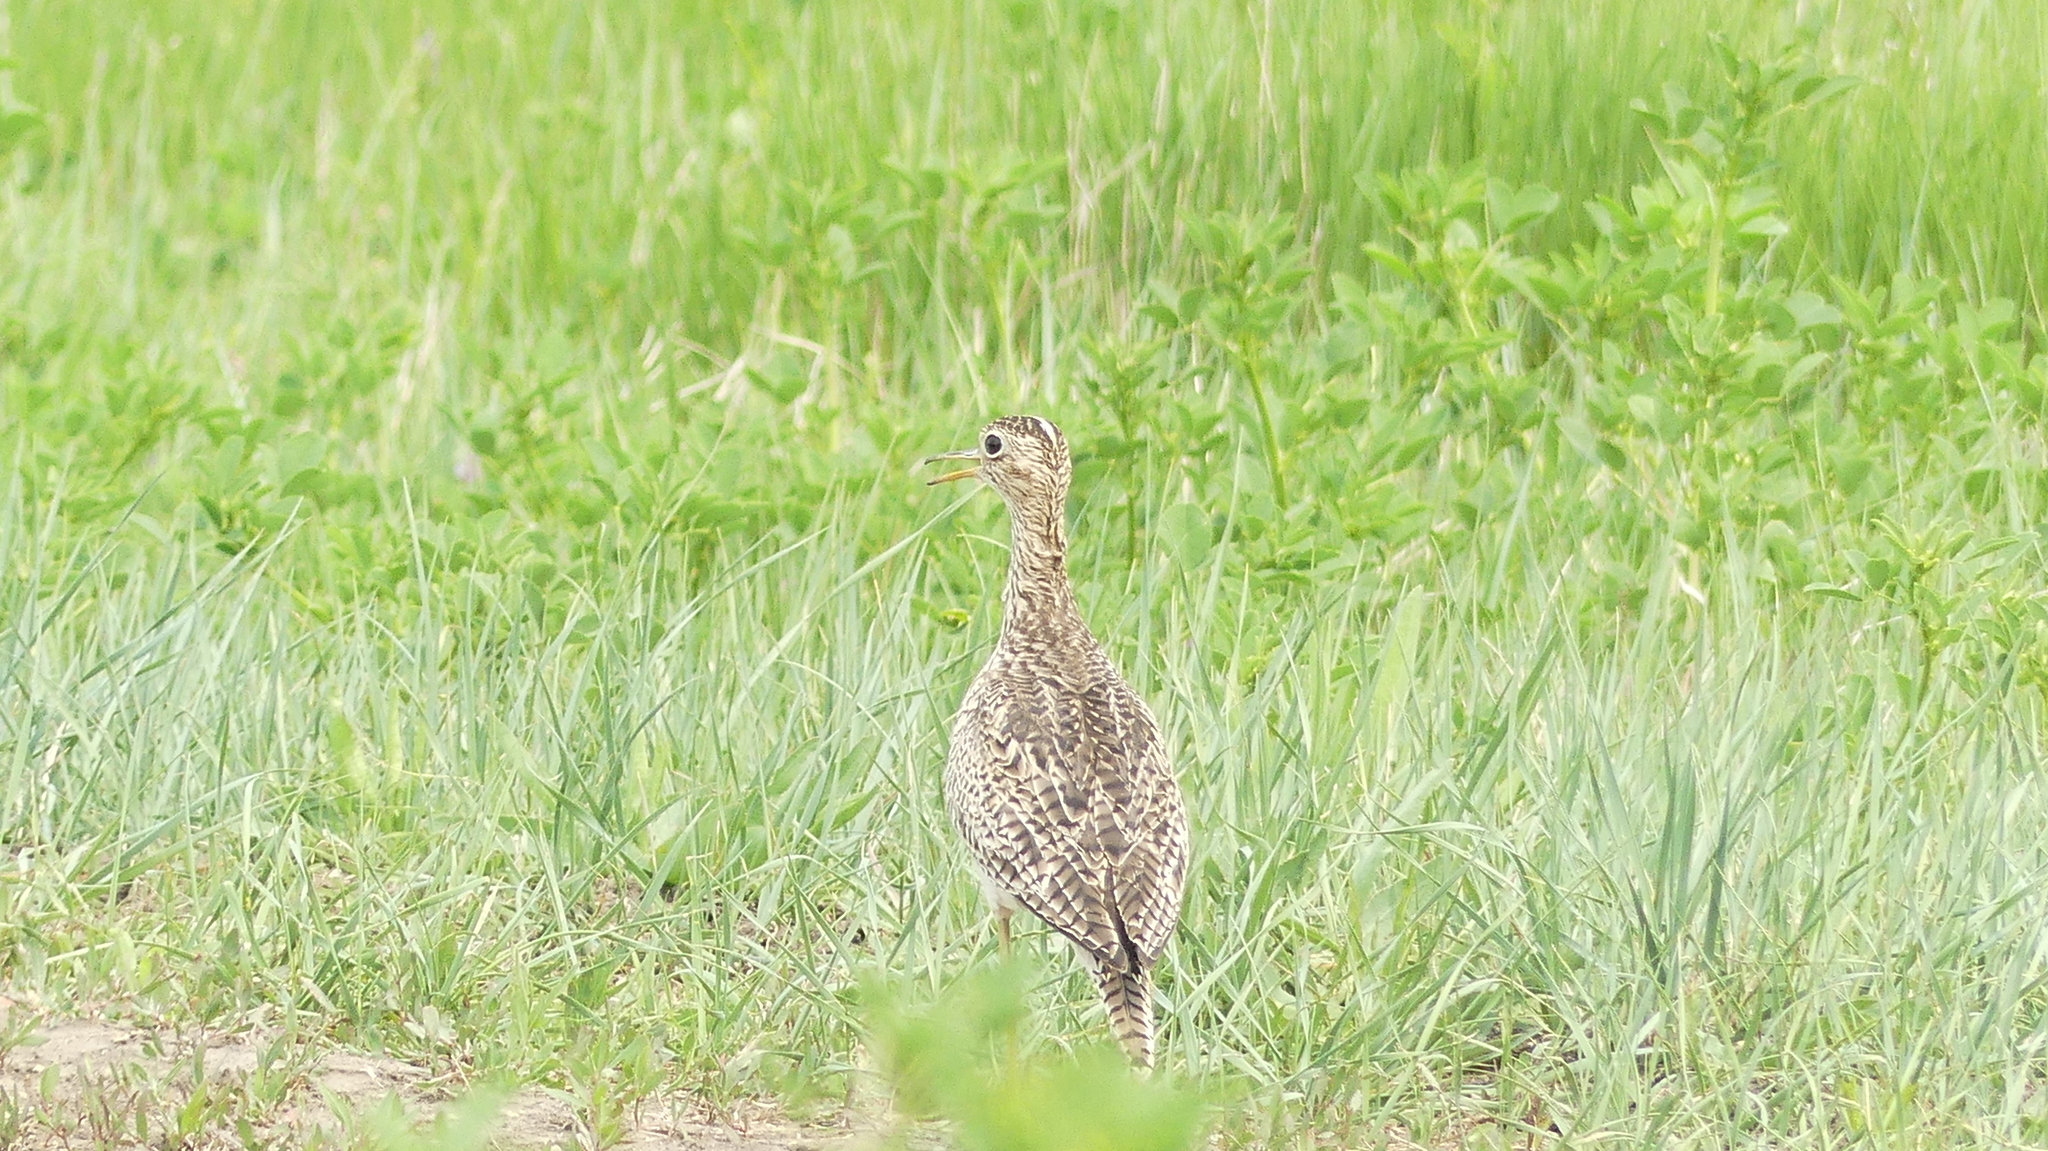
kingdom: Animalia
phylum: Chordata
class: Aves
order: Charadriiformes
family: Scolopacidae
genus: Bartramia
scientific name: Bartramia longicauda
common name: Upland sandpiper
